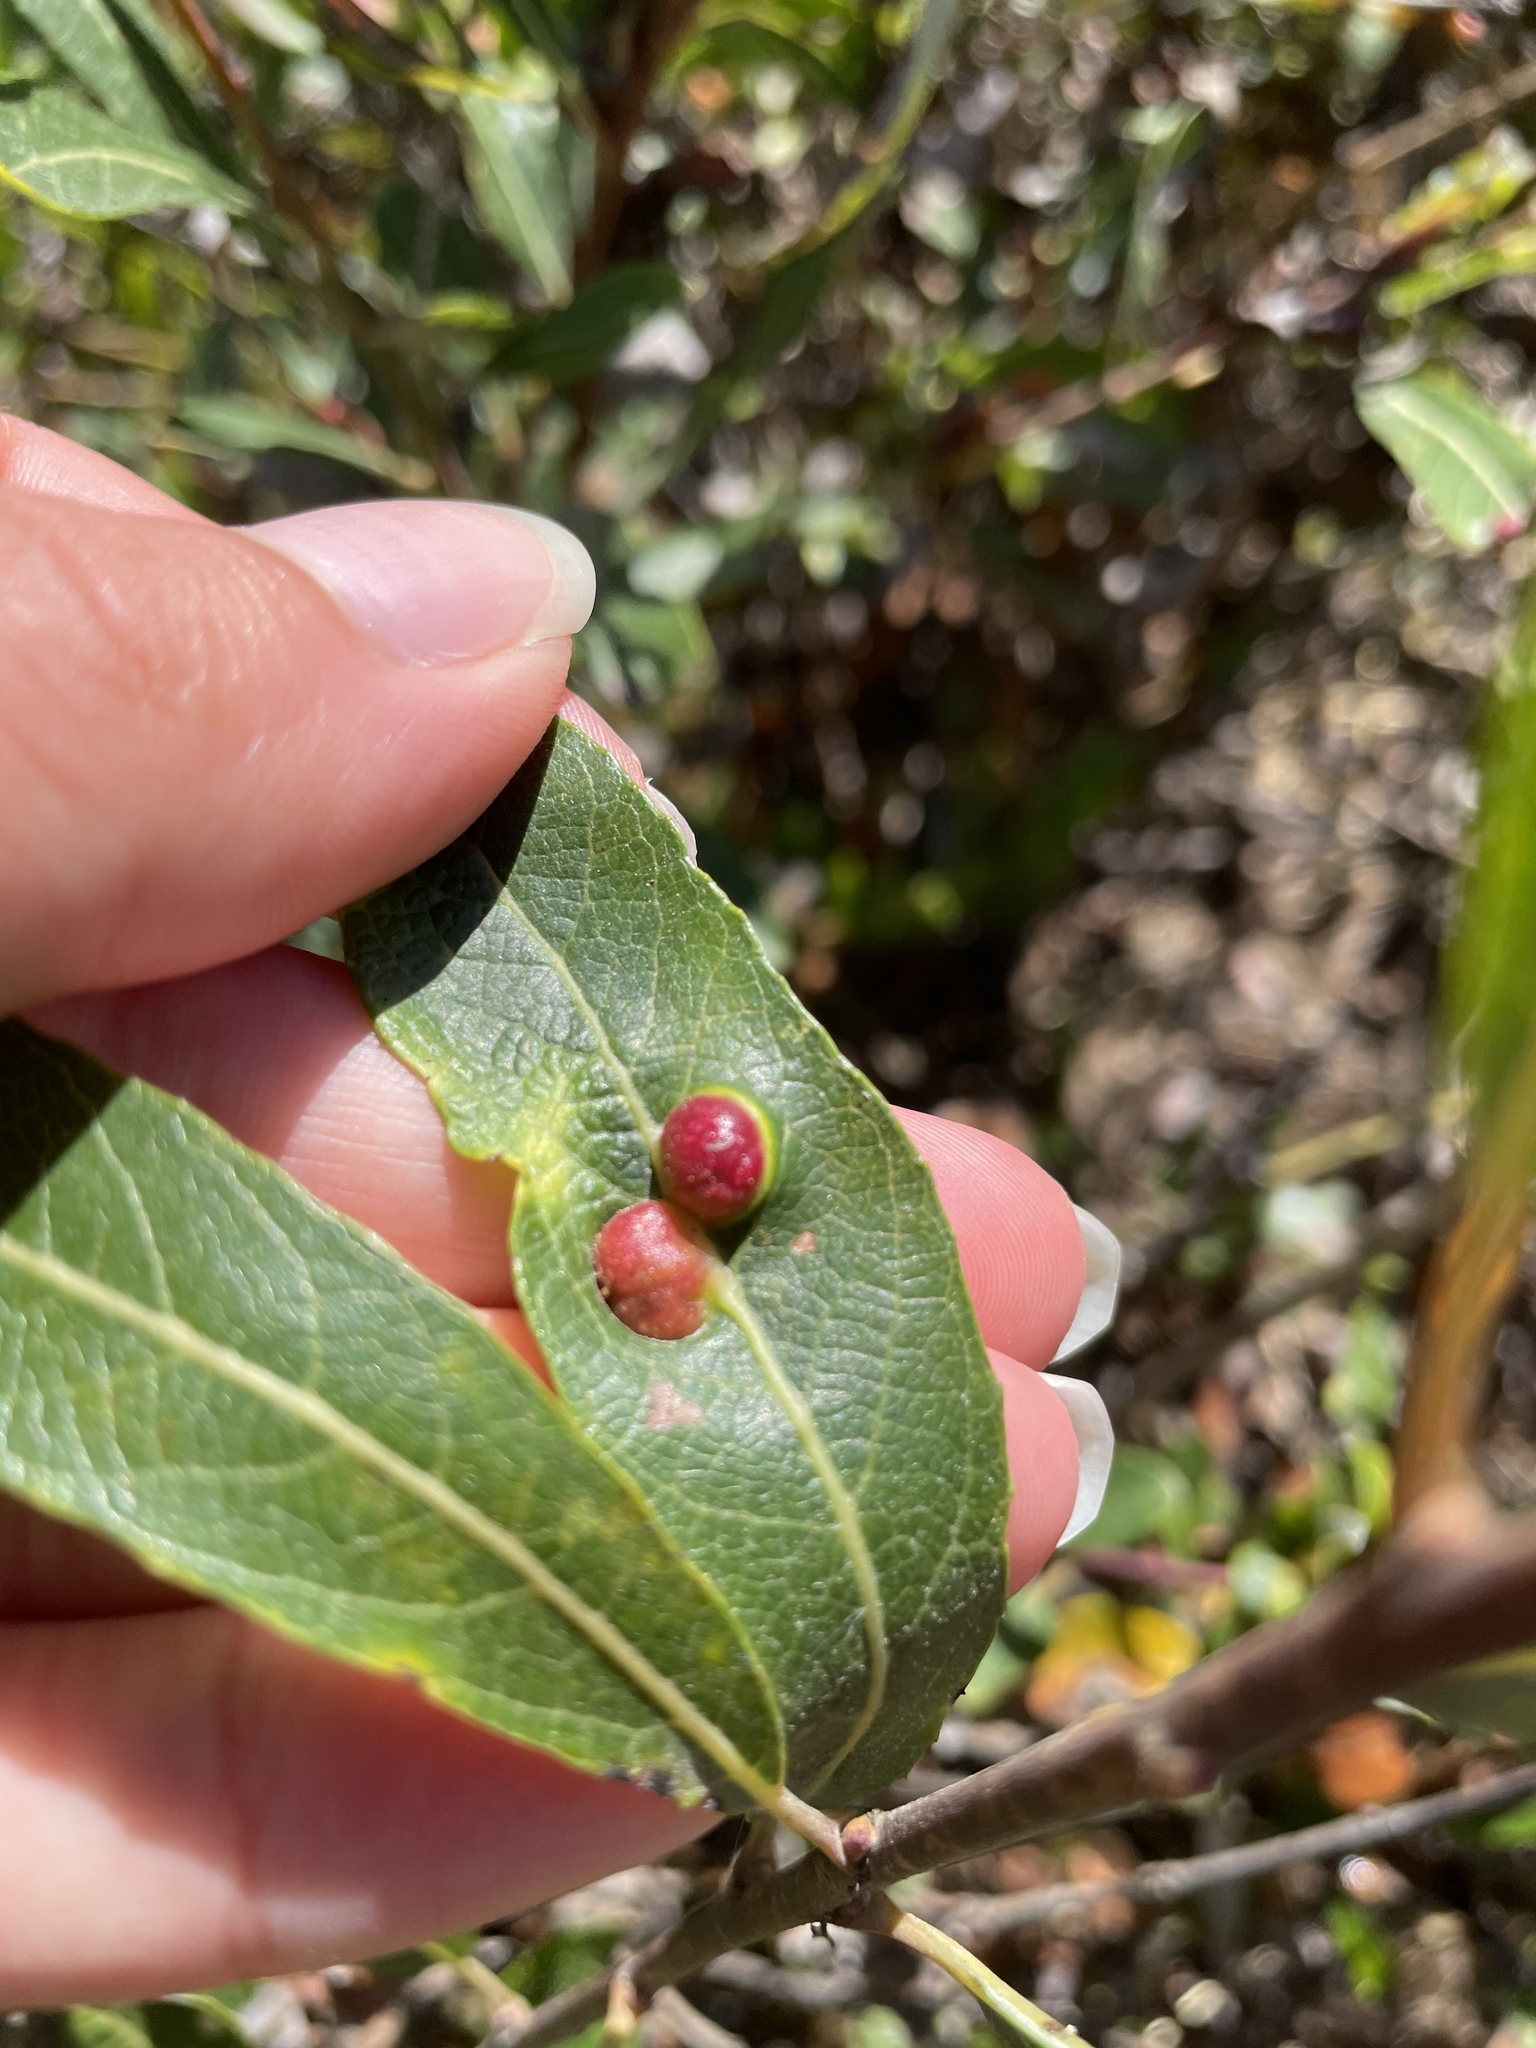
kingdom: Animalia
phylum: Arthropoda
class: Insecta
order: Hymenoptera
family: Tenthredinidae
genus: Euura
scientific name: Euura
